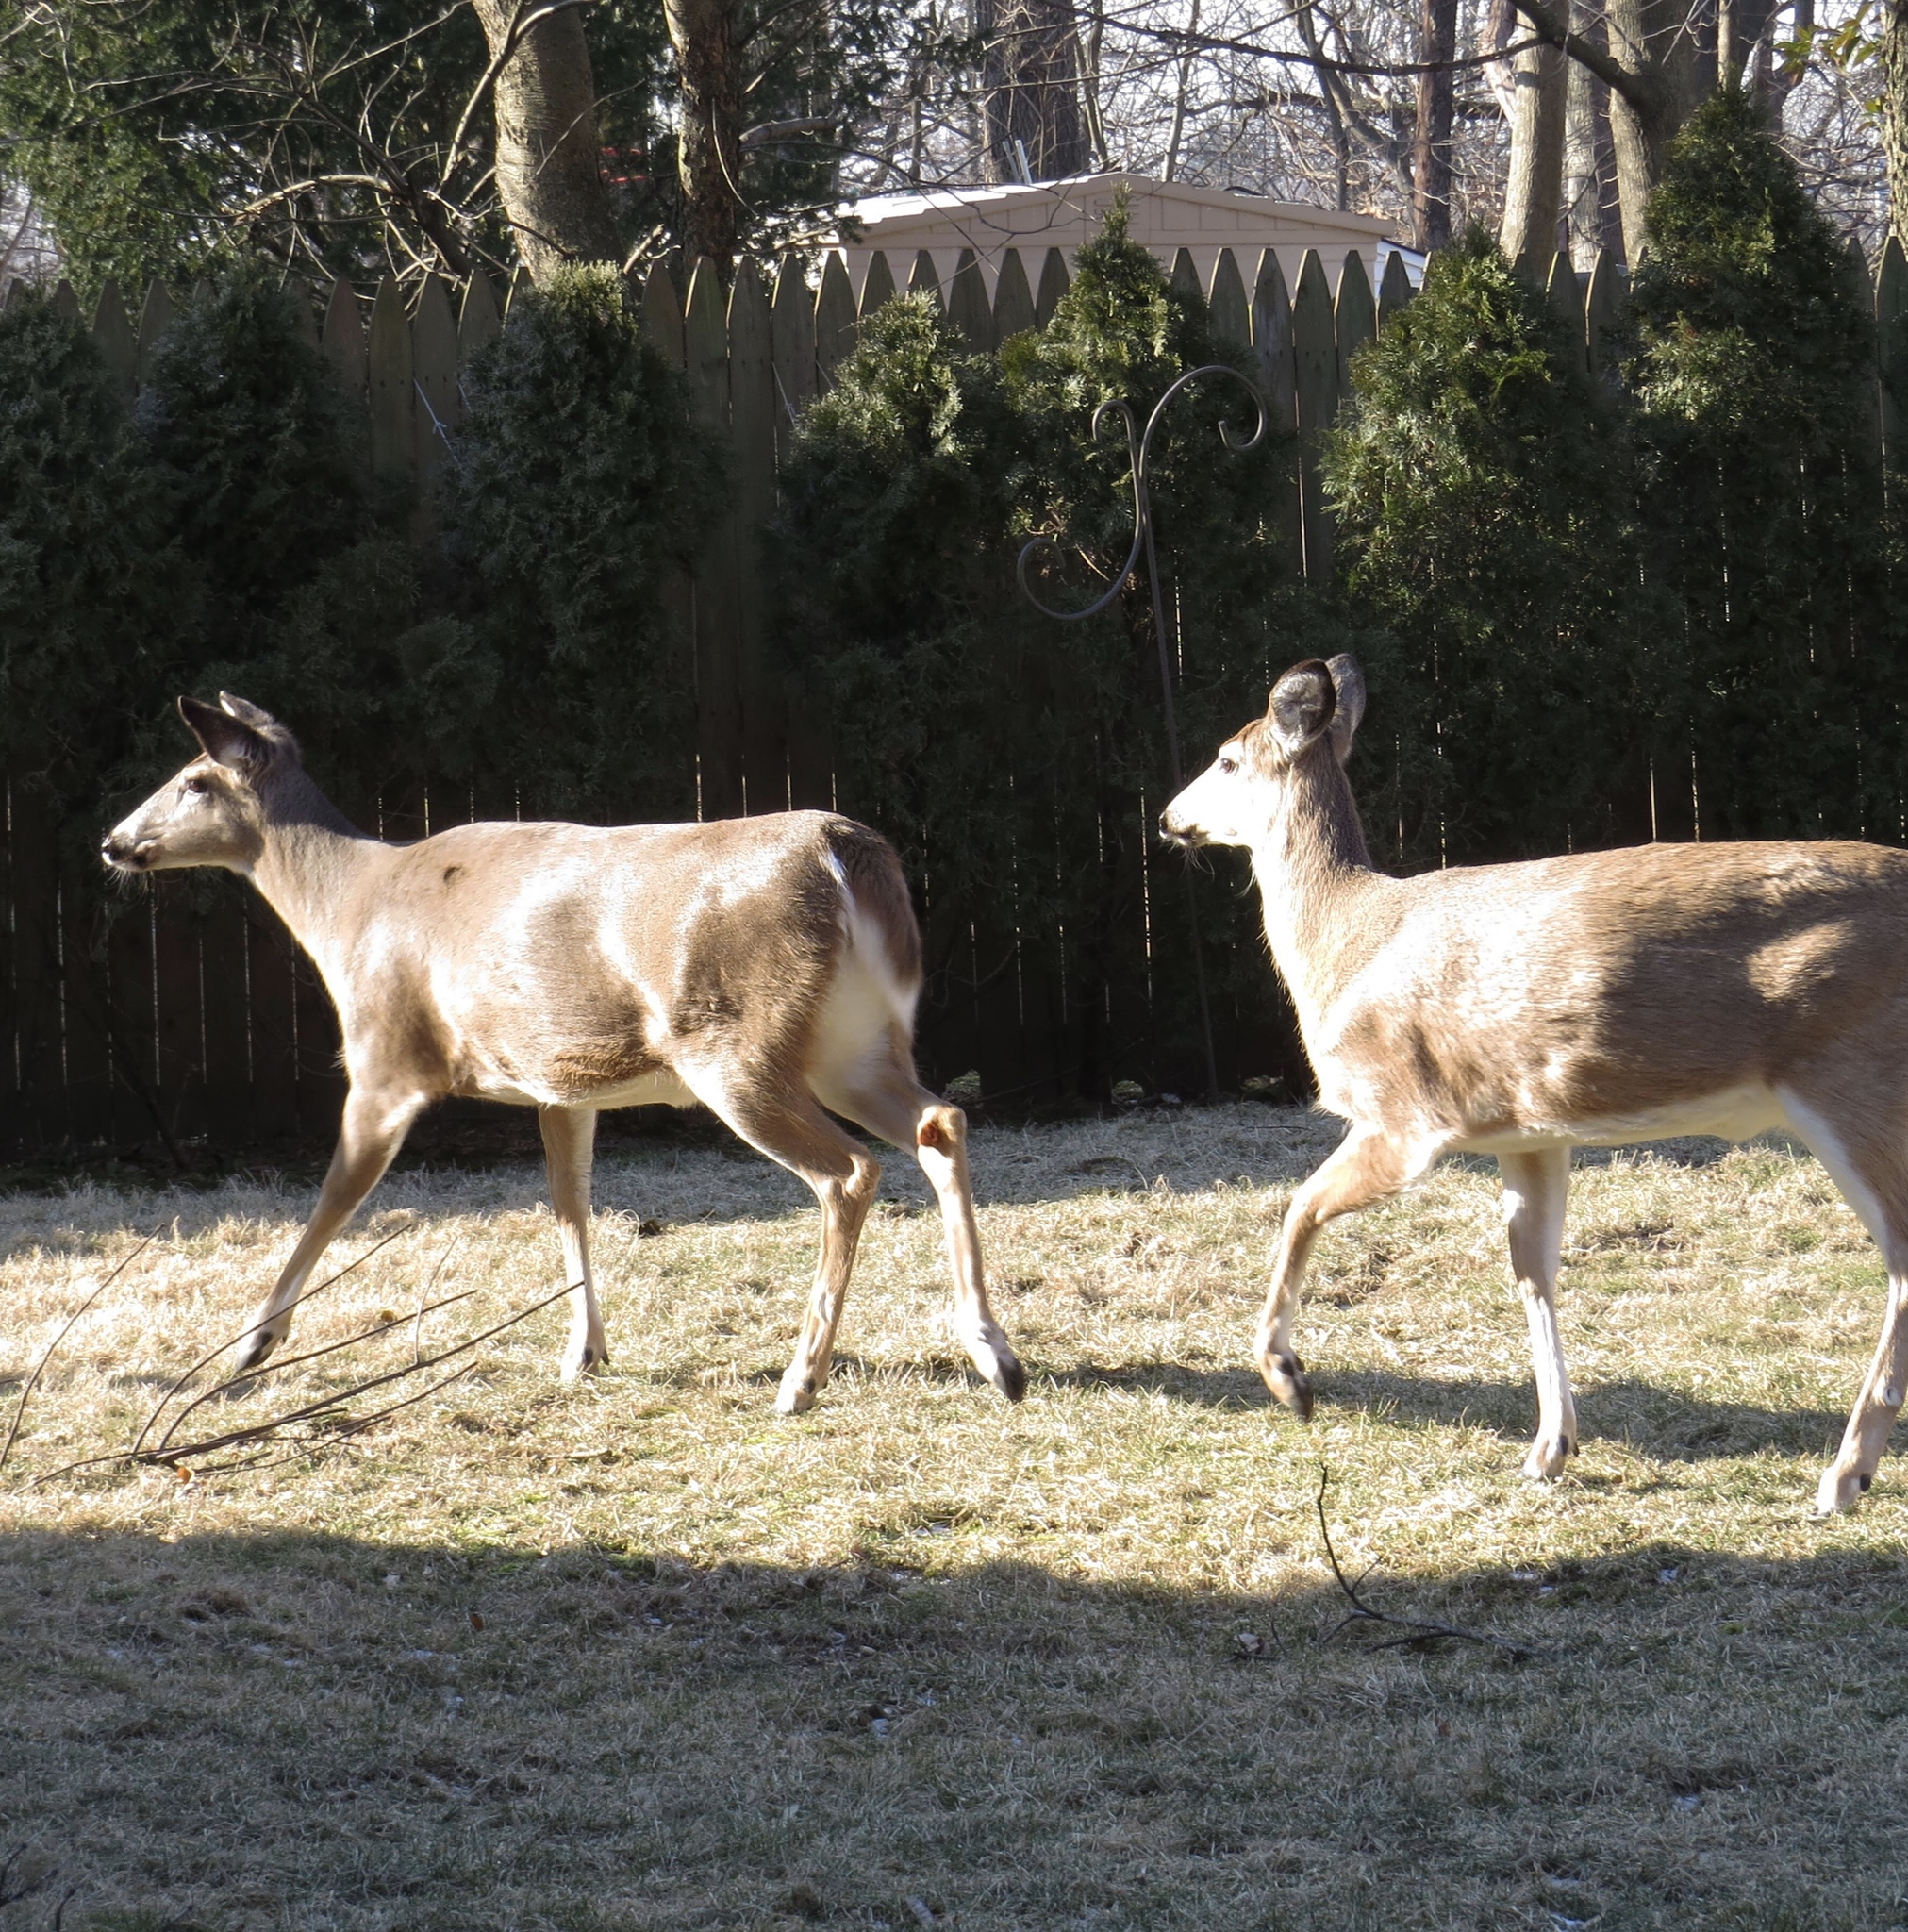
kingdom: Animalia
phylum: Chordata
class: Mammalia
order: Artiodactyla
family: Cervidae
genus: Odocoileus
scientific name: Odocoileus virginianus
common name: White-tailed deer
